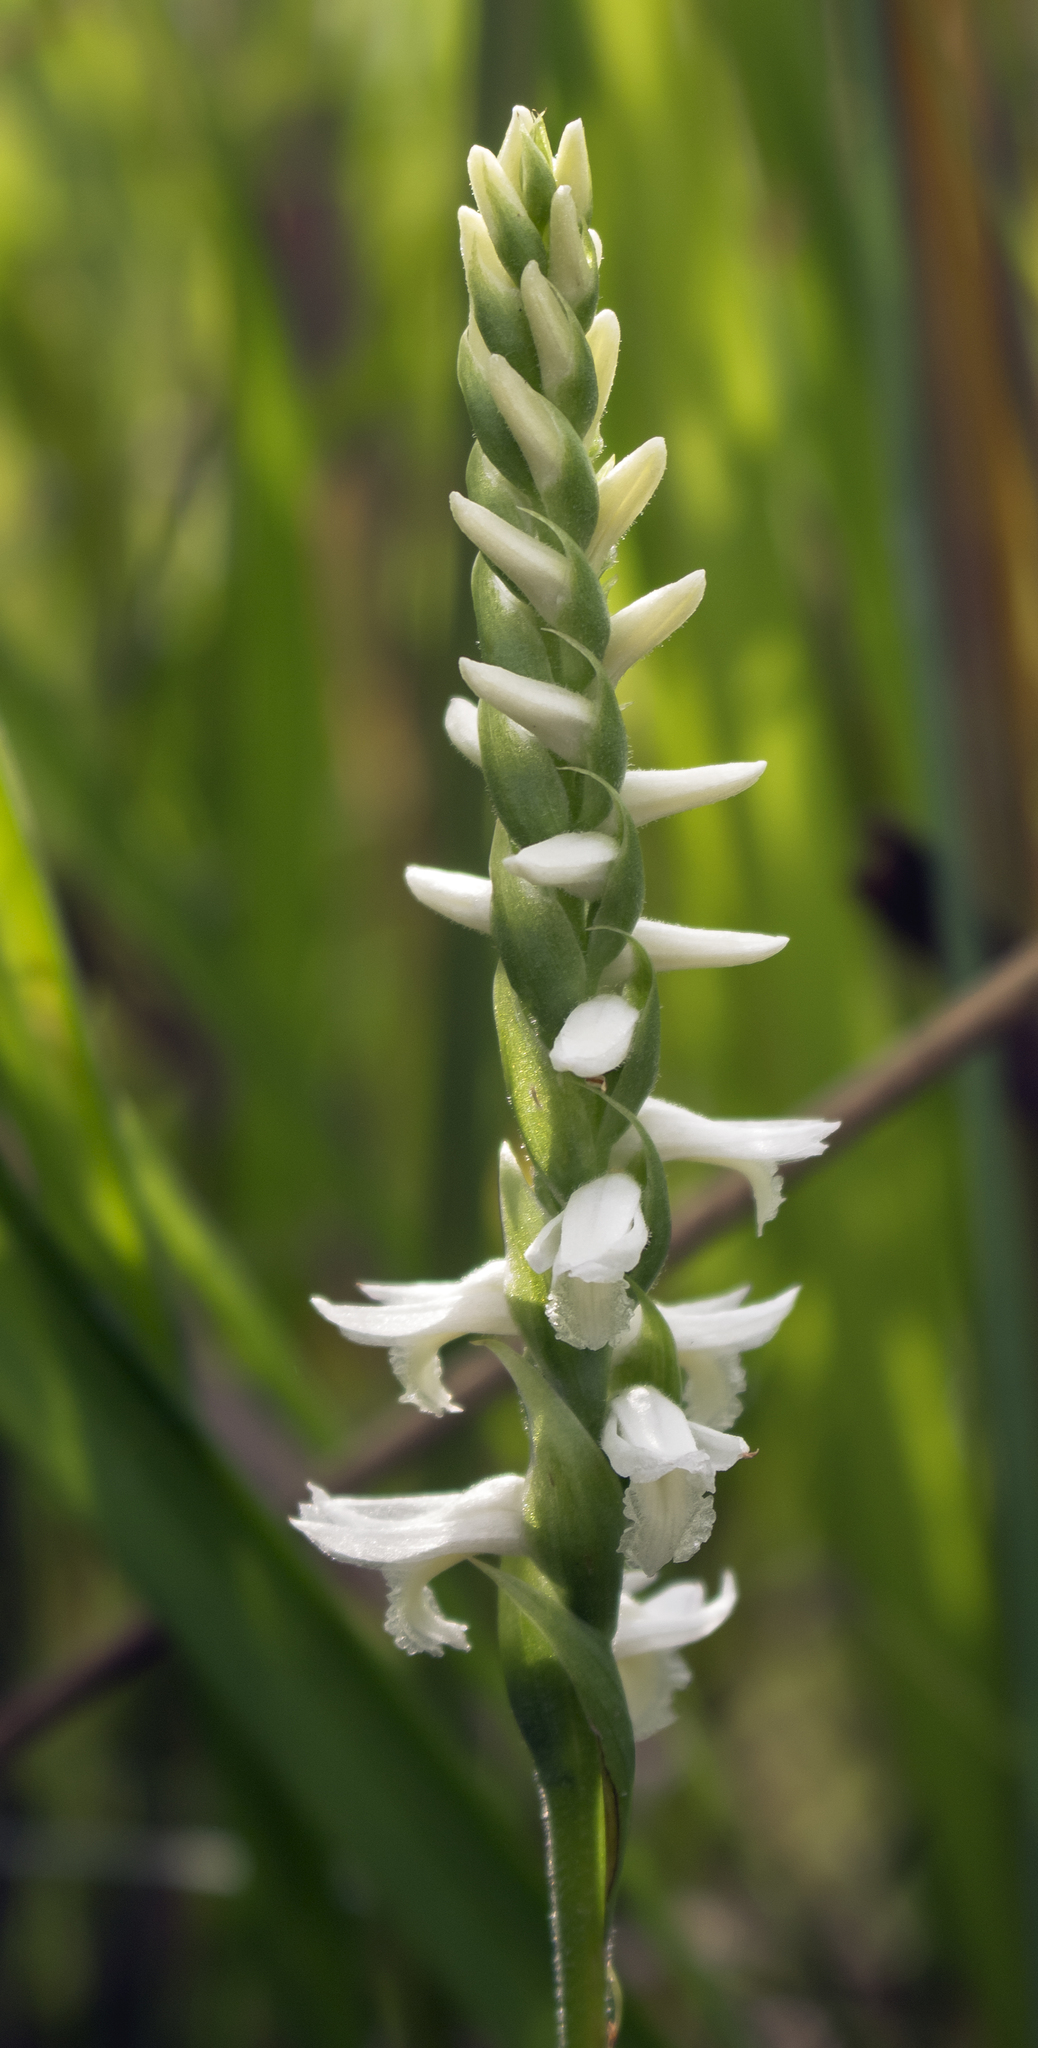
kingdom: Plantae
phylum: Tracheophyta
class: Liliopsida
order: Asparagales
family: Orchidaceae
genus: Spiranthes
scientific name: Spiranthes magnicamporum
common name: Great plains ladies'-tresses
